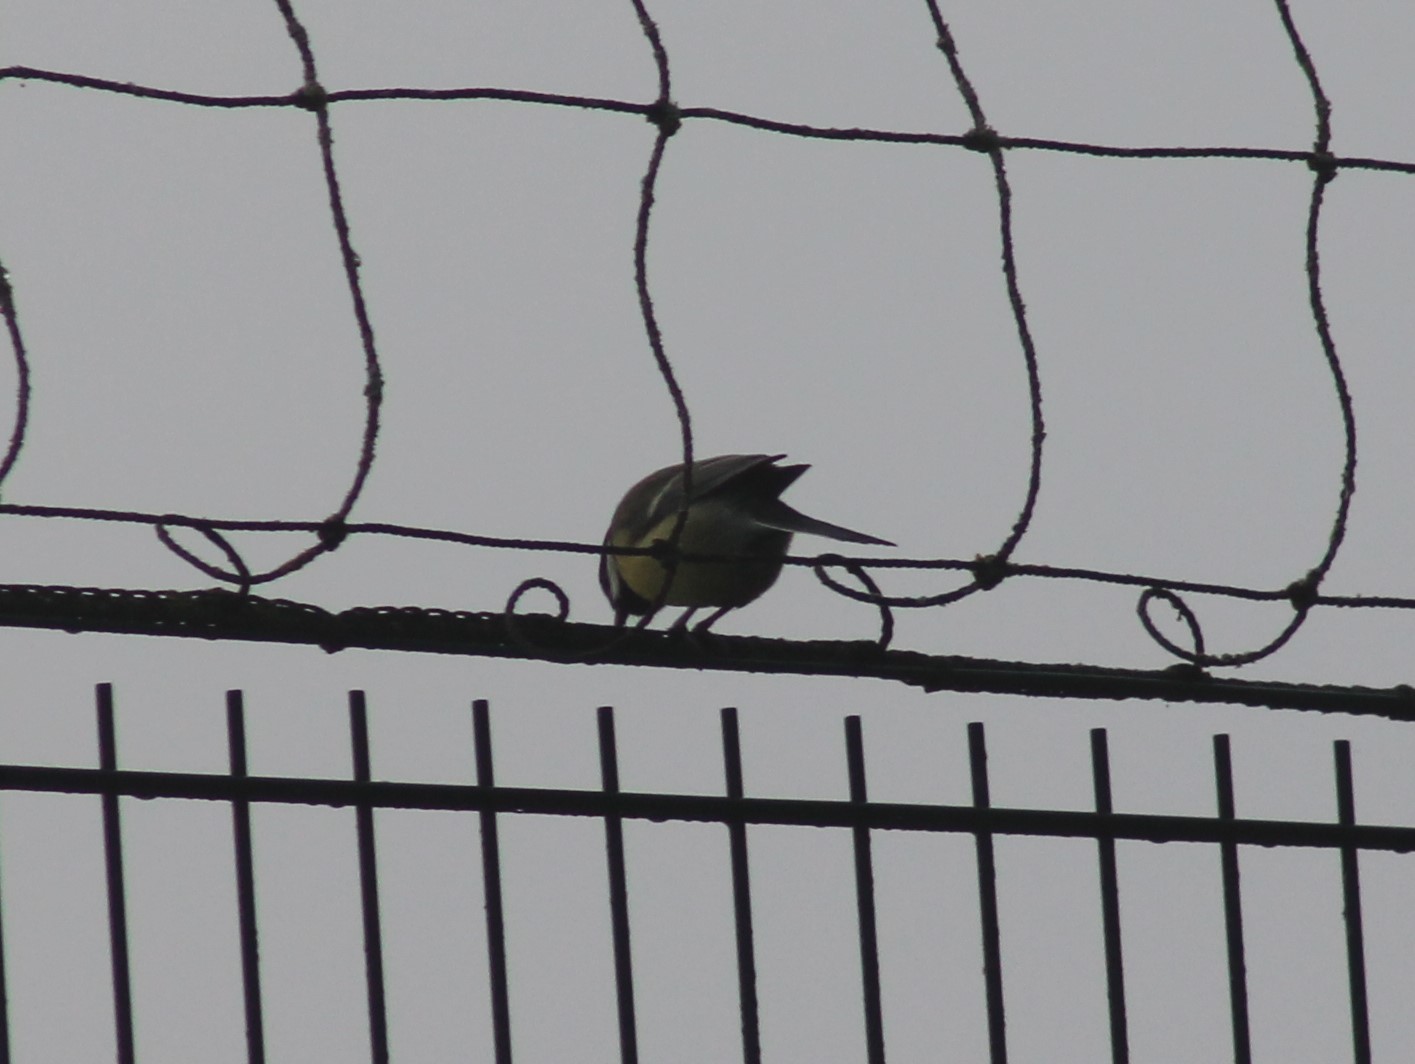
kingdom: Animalia
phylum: Chordata
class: Aves
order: Passeriformes
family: Paridae
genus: Parus
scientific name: Parus major
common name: Great tit
